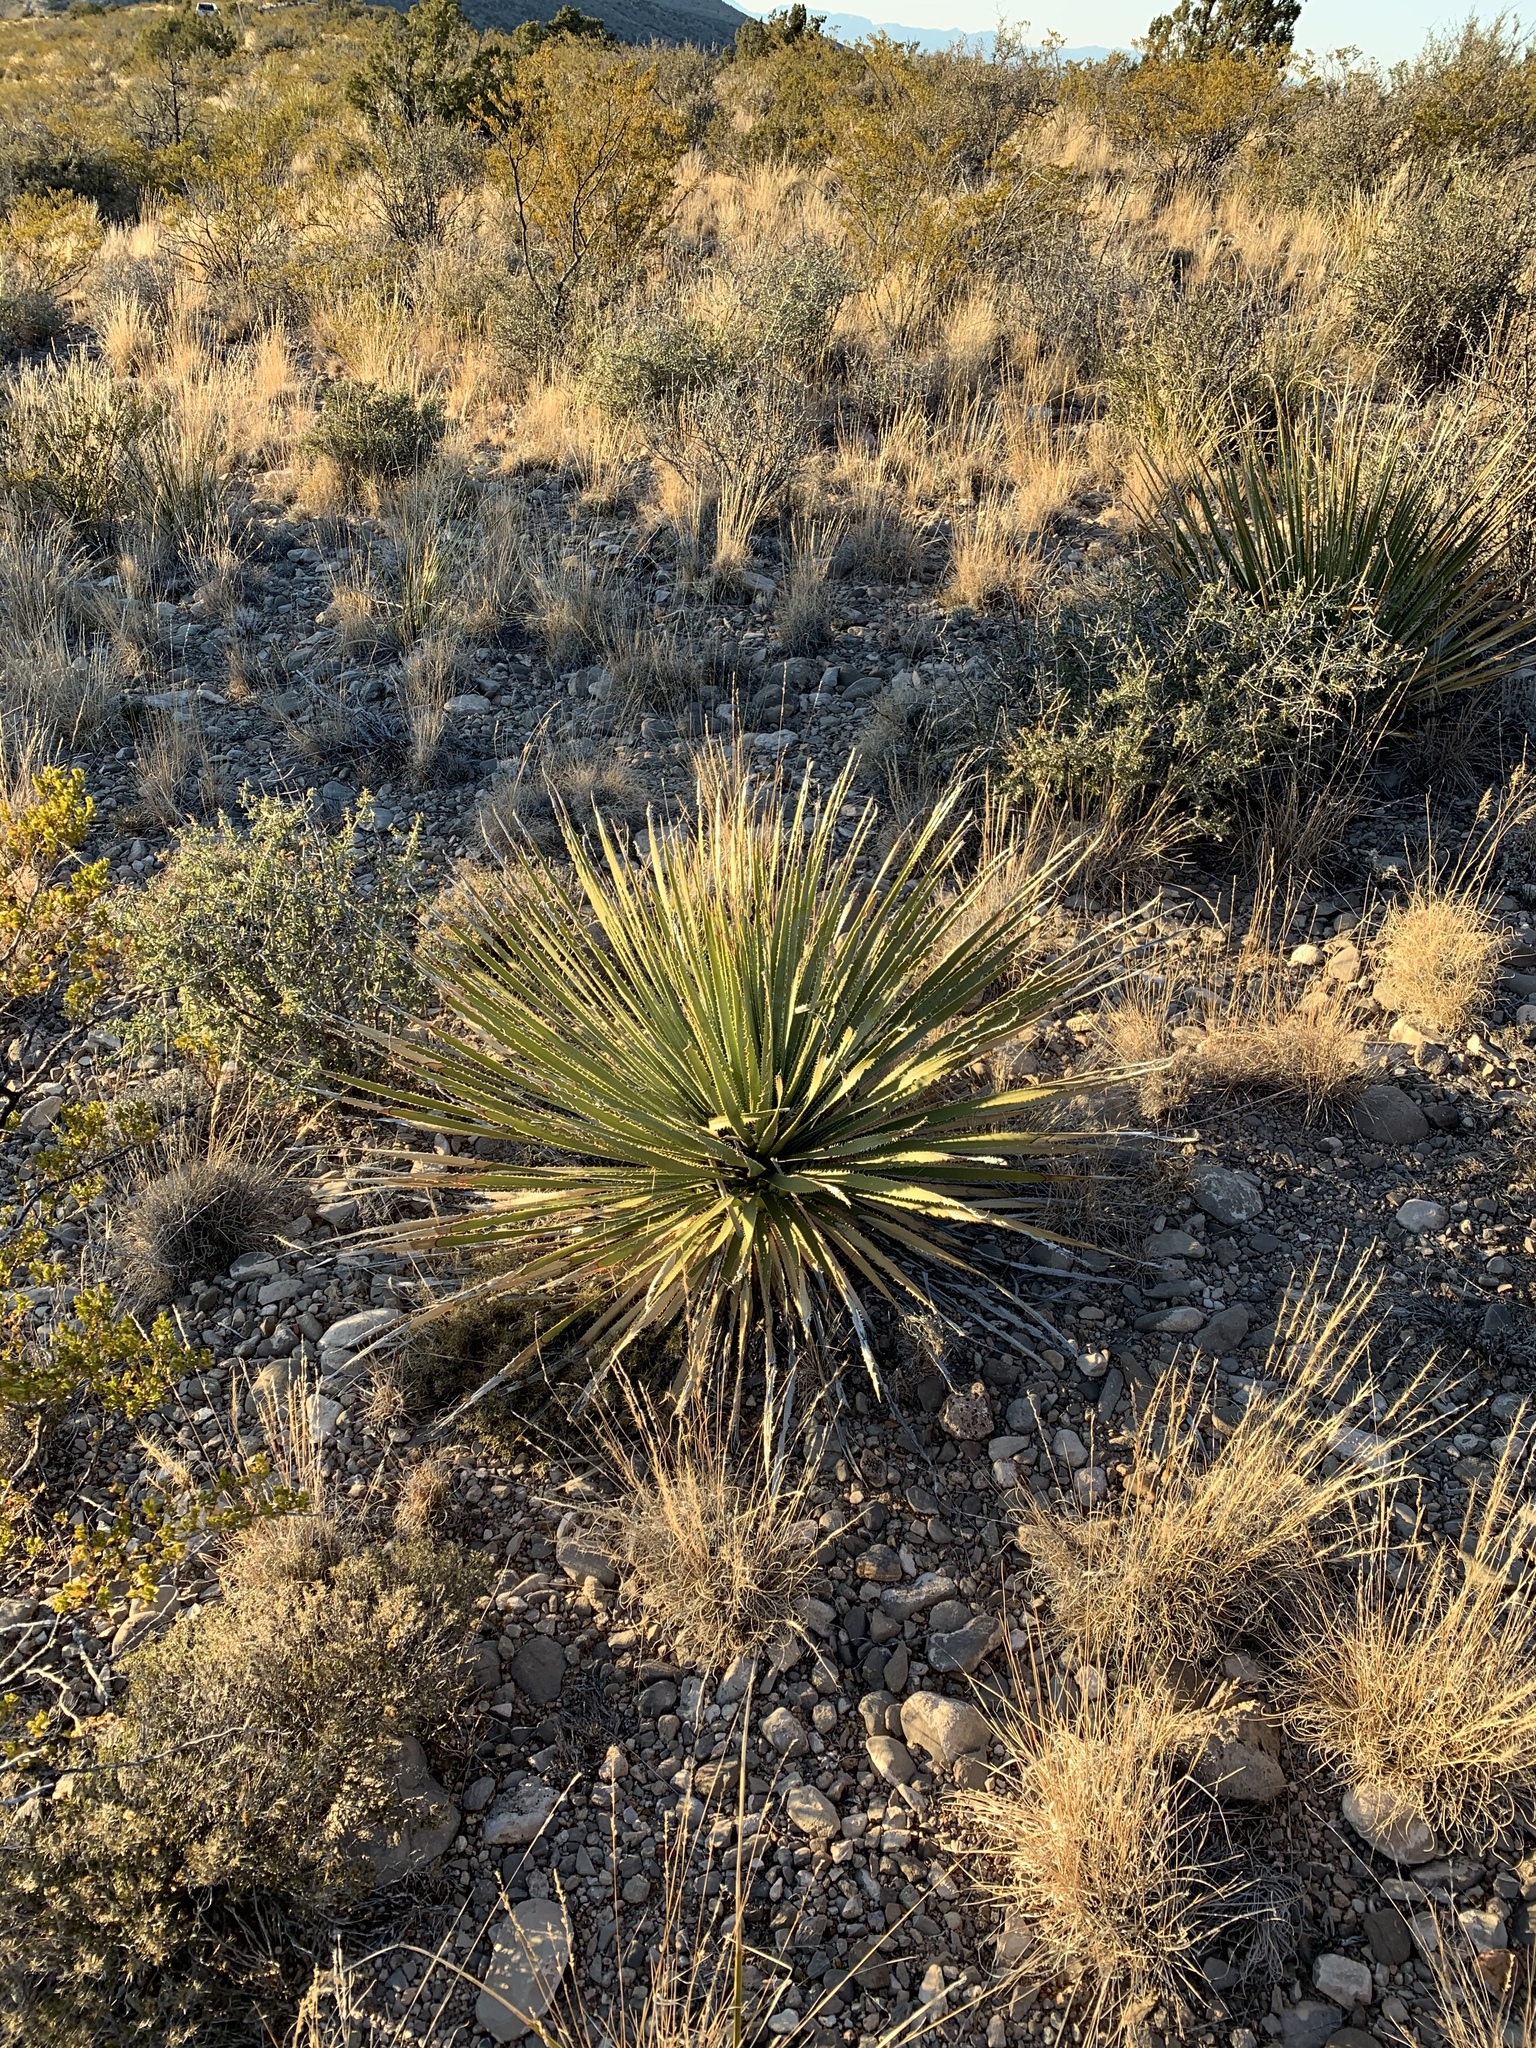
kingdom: Plantae
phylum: Tracheophyta
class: Liliopsida
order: Asparagales
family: Asparagaceae
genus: Dasylirion
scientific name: Dasylirion wheeleri
